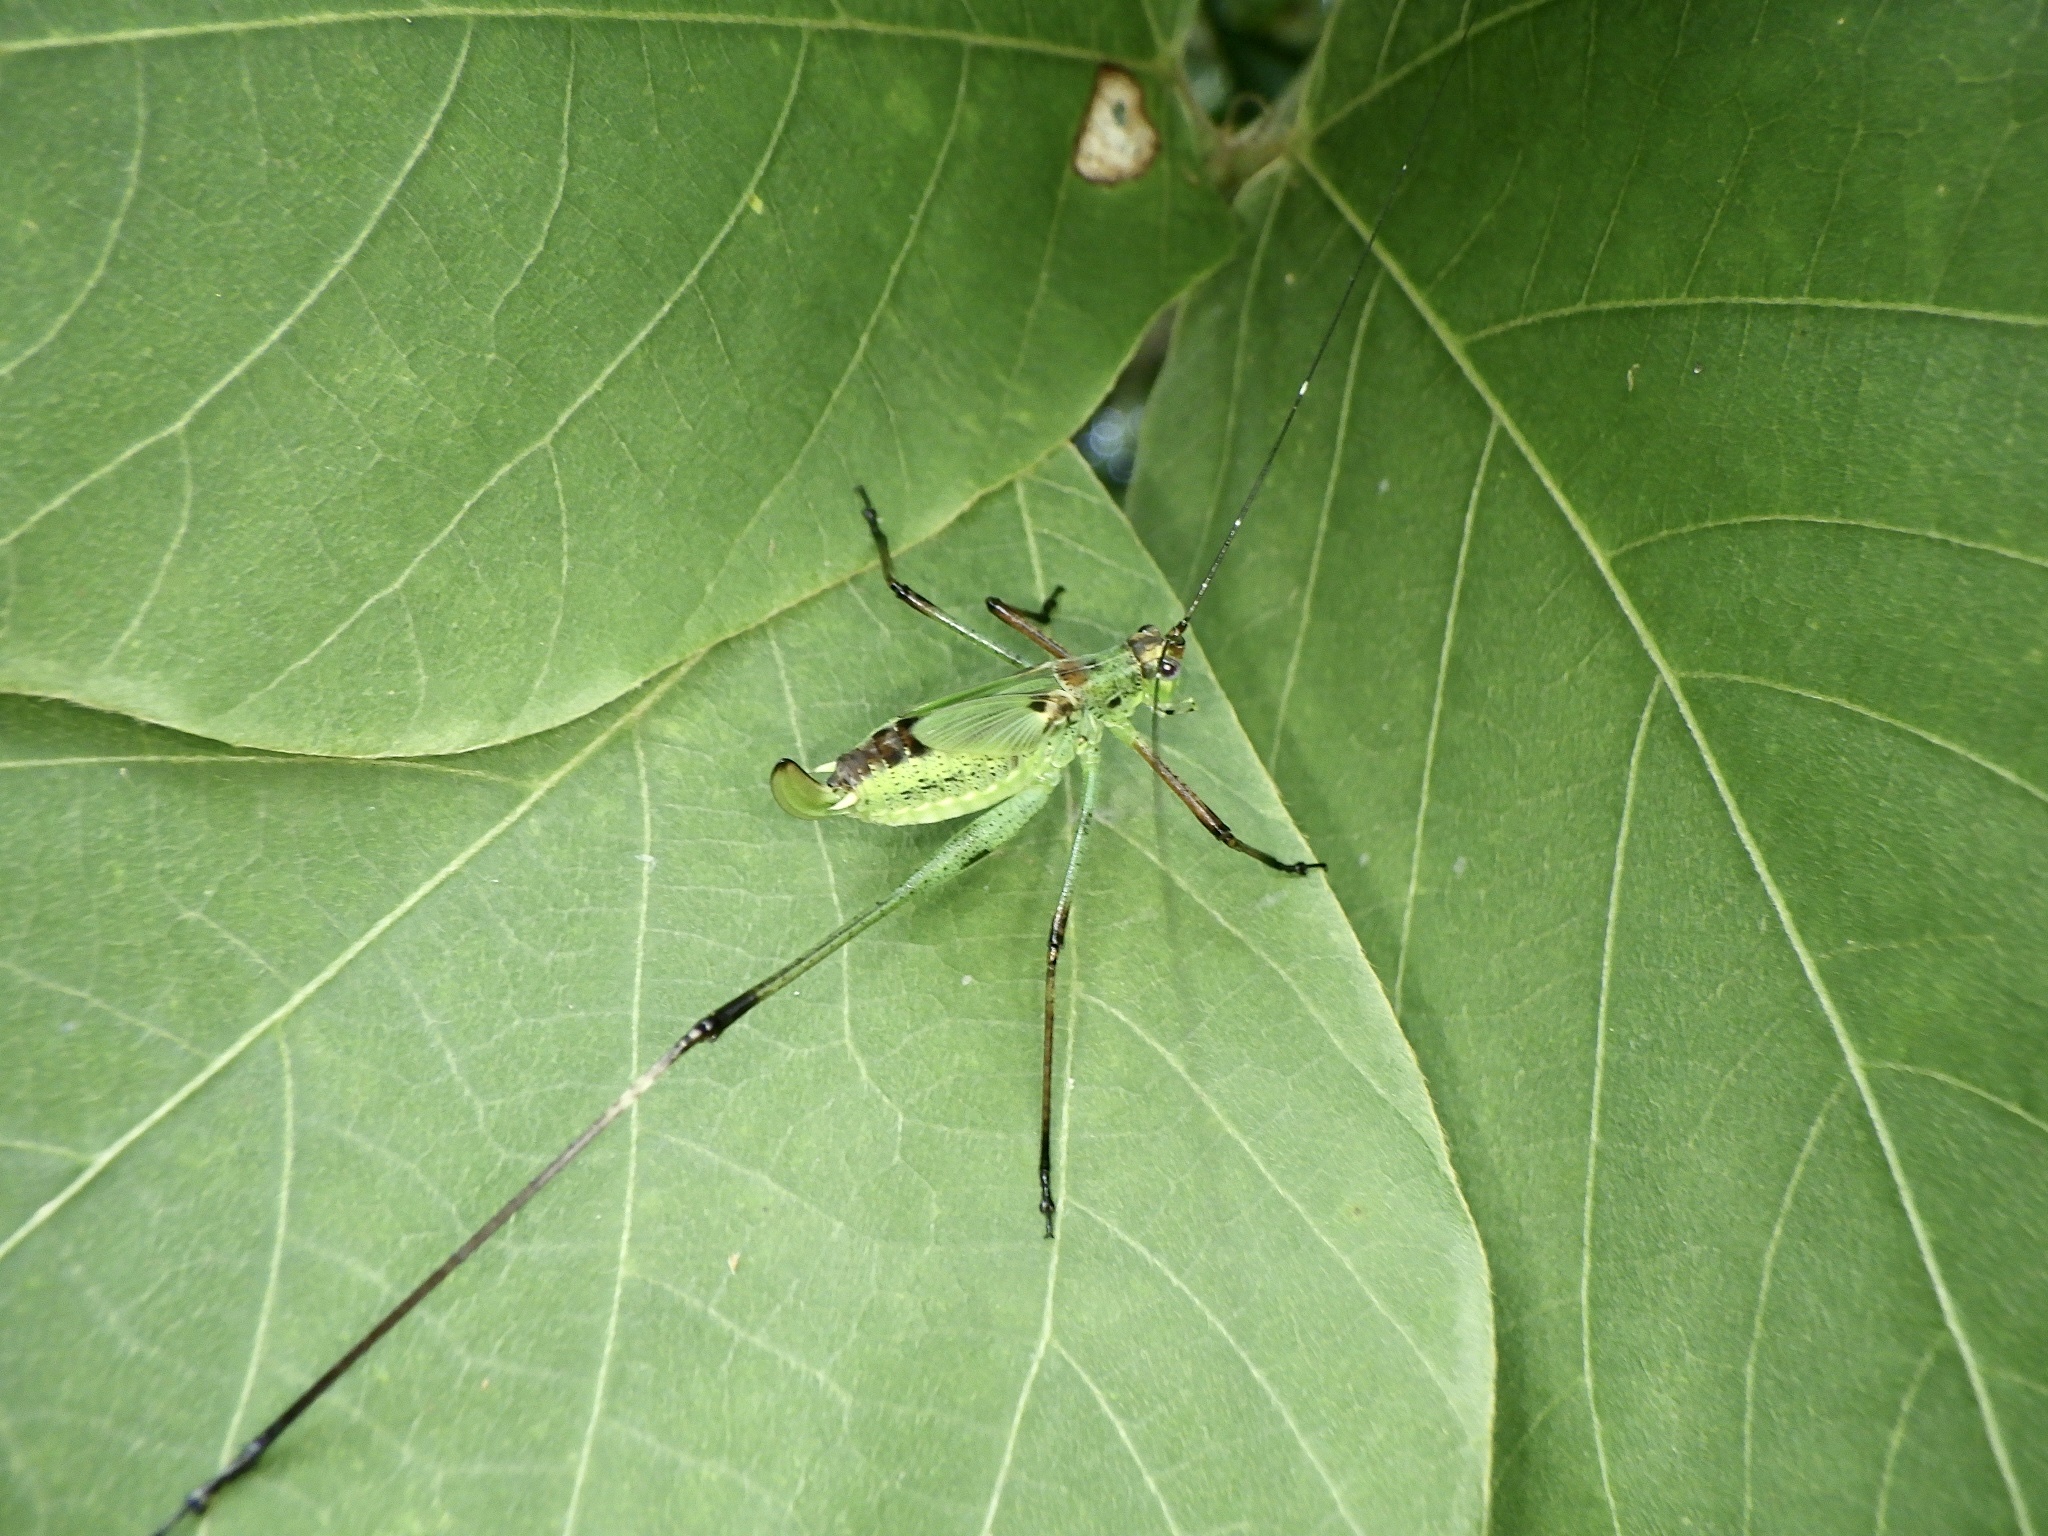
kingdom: Animalia
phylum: Arthropoda
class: Insecta
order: Orthoptera
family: Tettigoniidae
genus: Phaneroptera
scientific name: Phaneroptera nigroantennata
